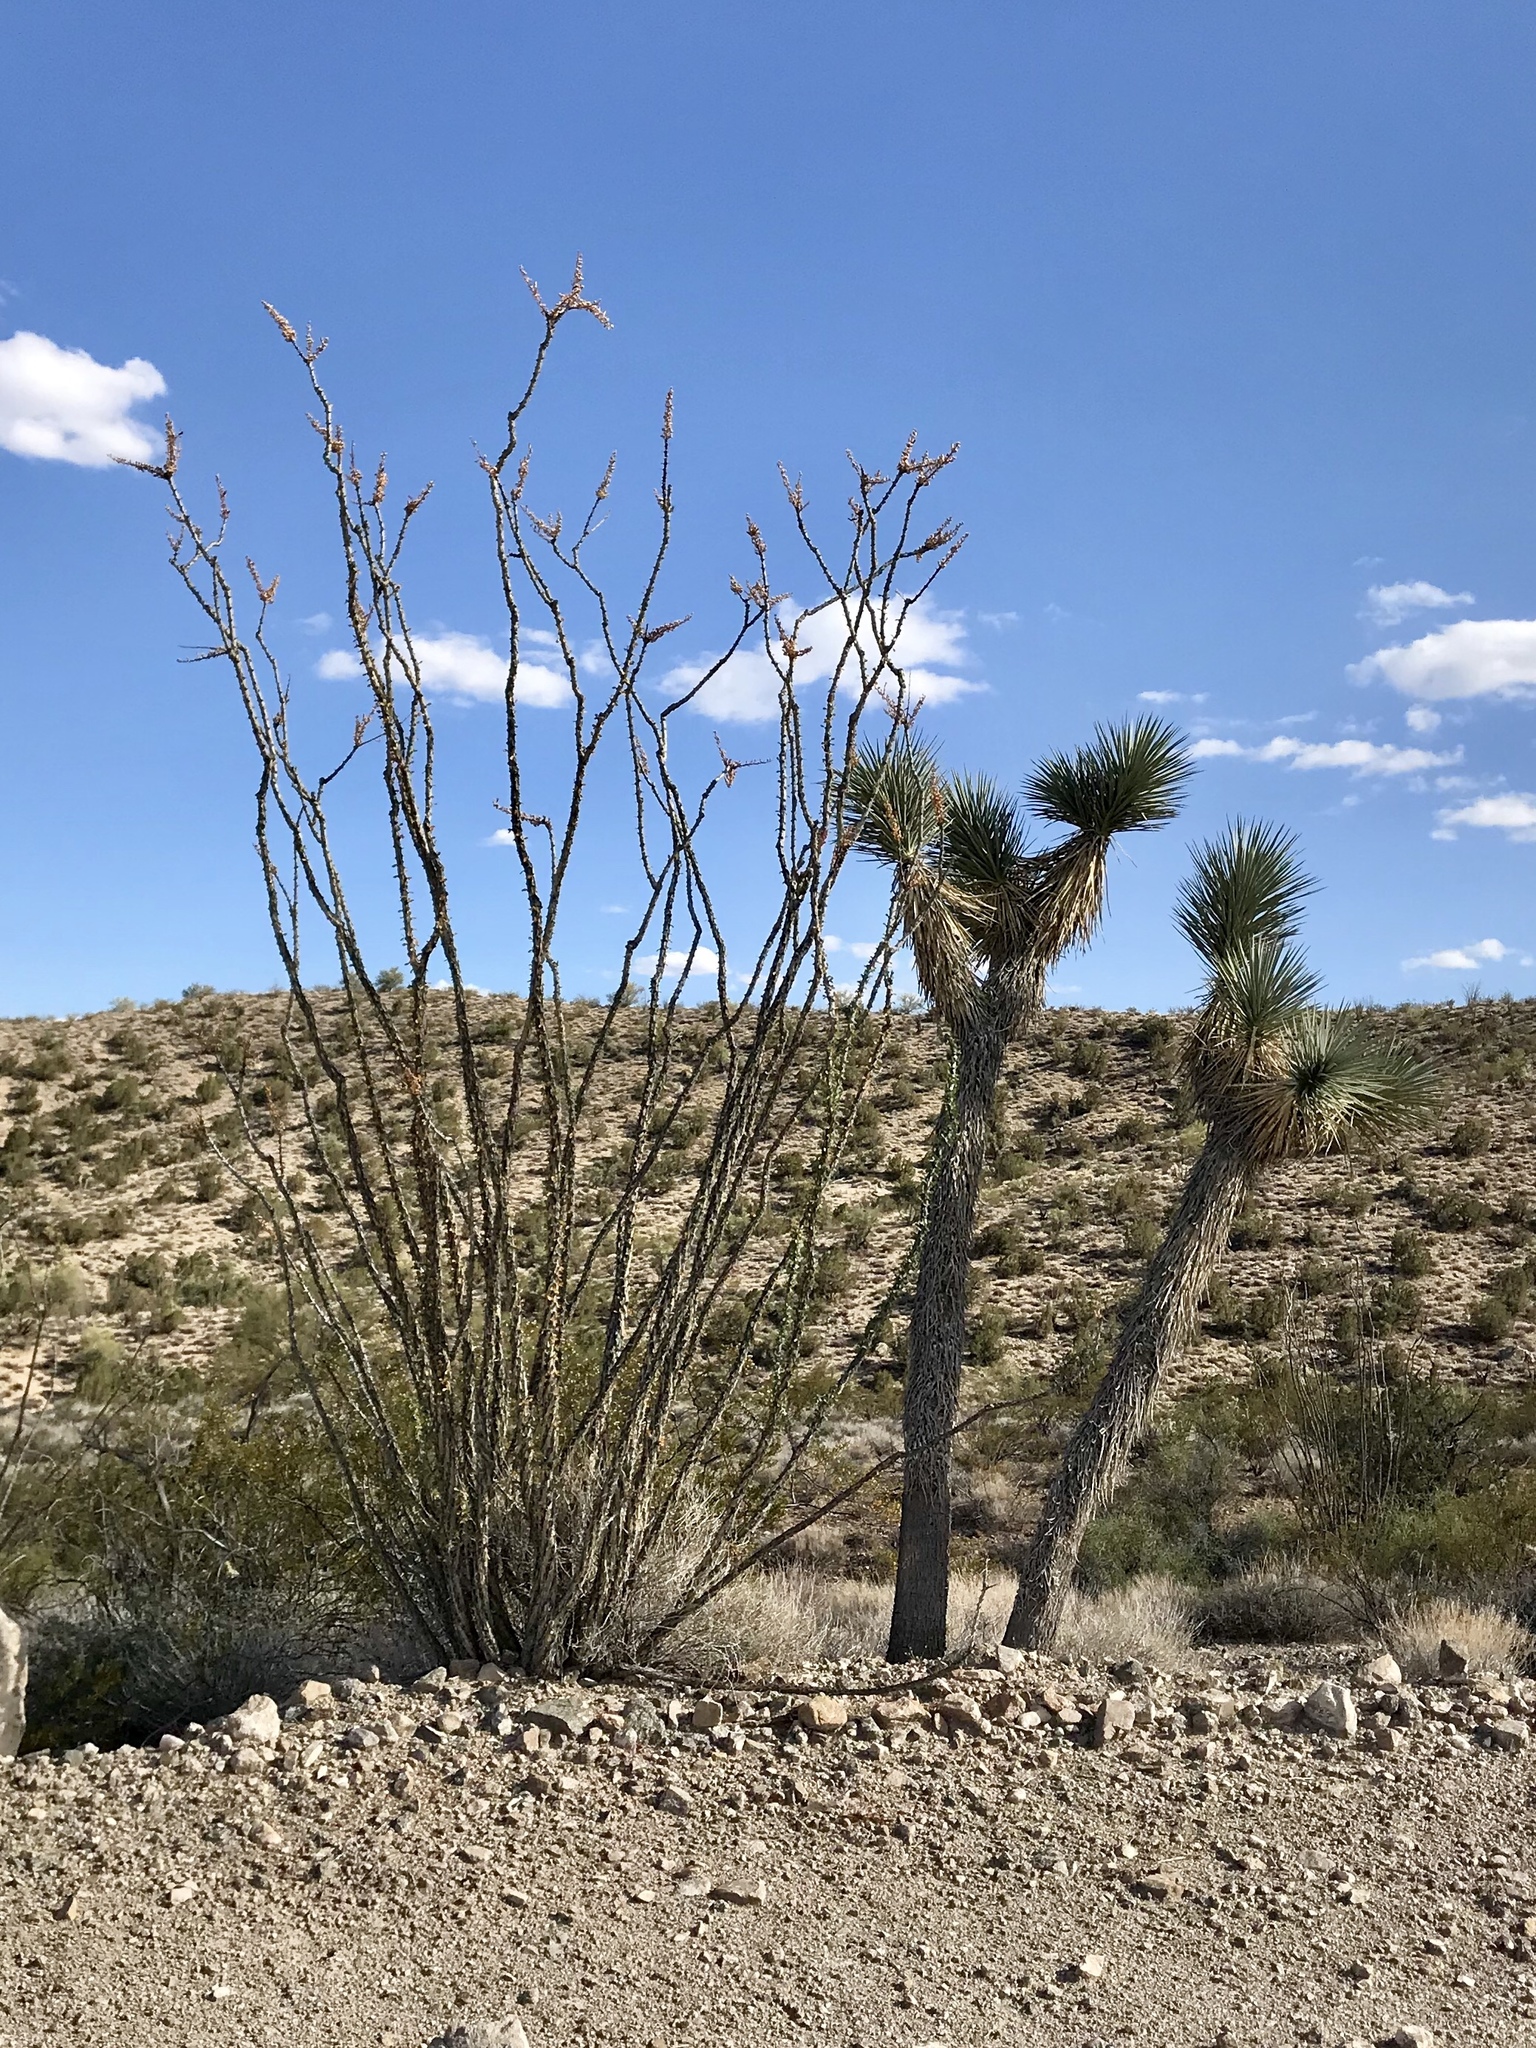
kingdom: Plantae
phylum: Tracheophyta
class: Magnoliopsida
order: Ericales
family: Fouquieriaceae
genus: Fouquieria
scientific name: Fouquieria splendens
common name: Vine-cactus
